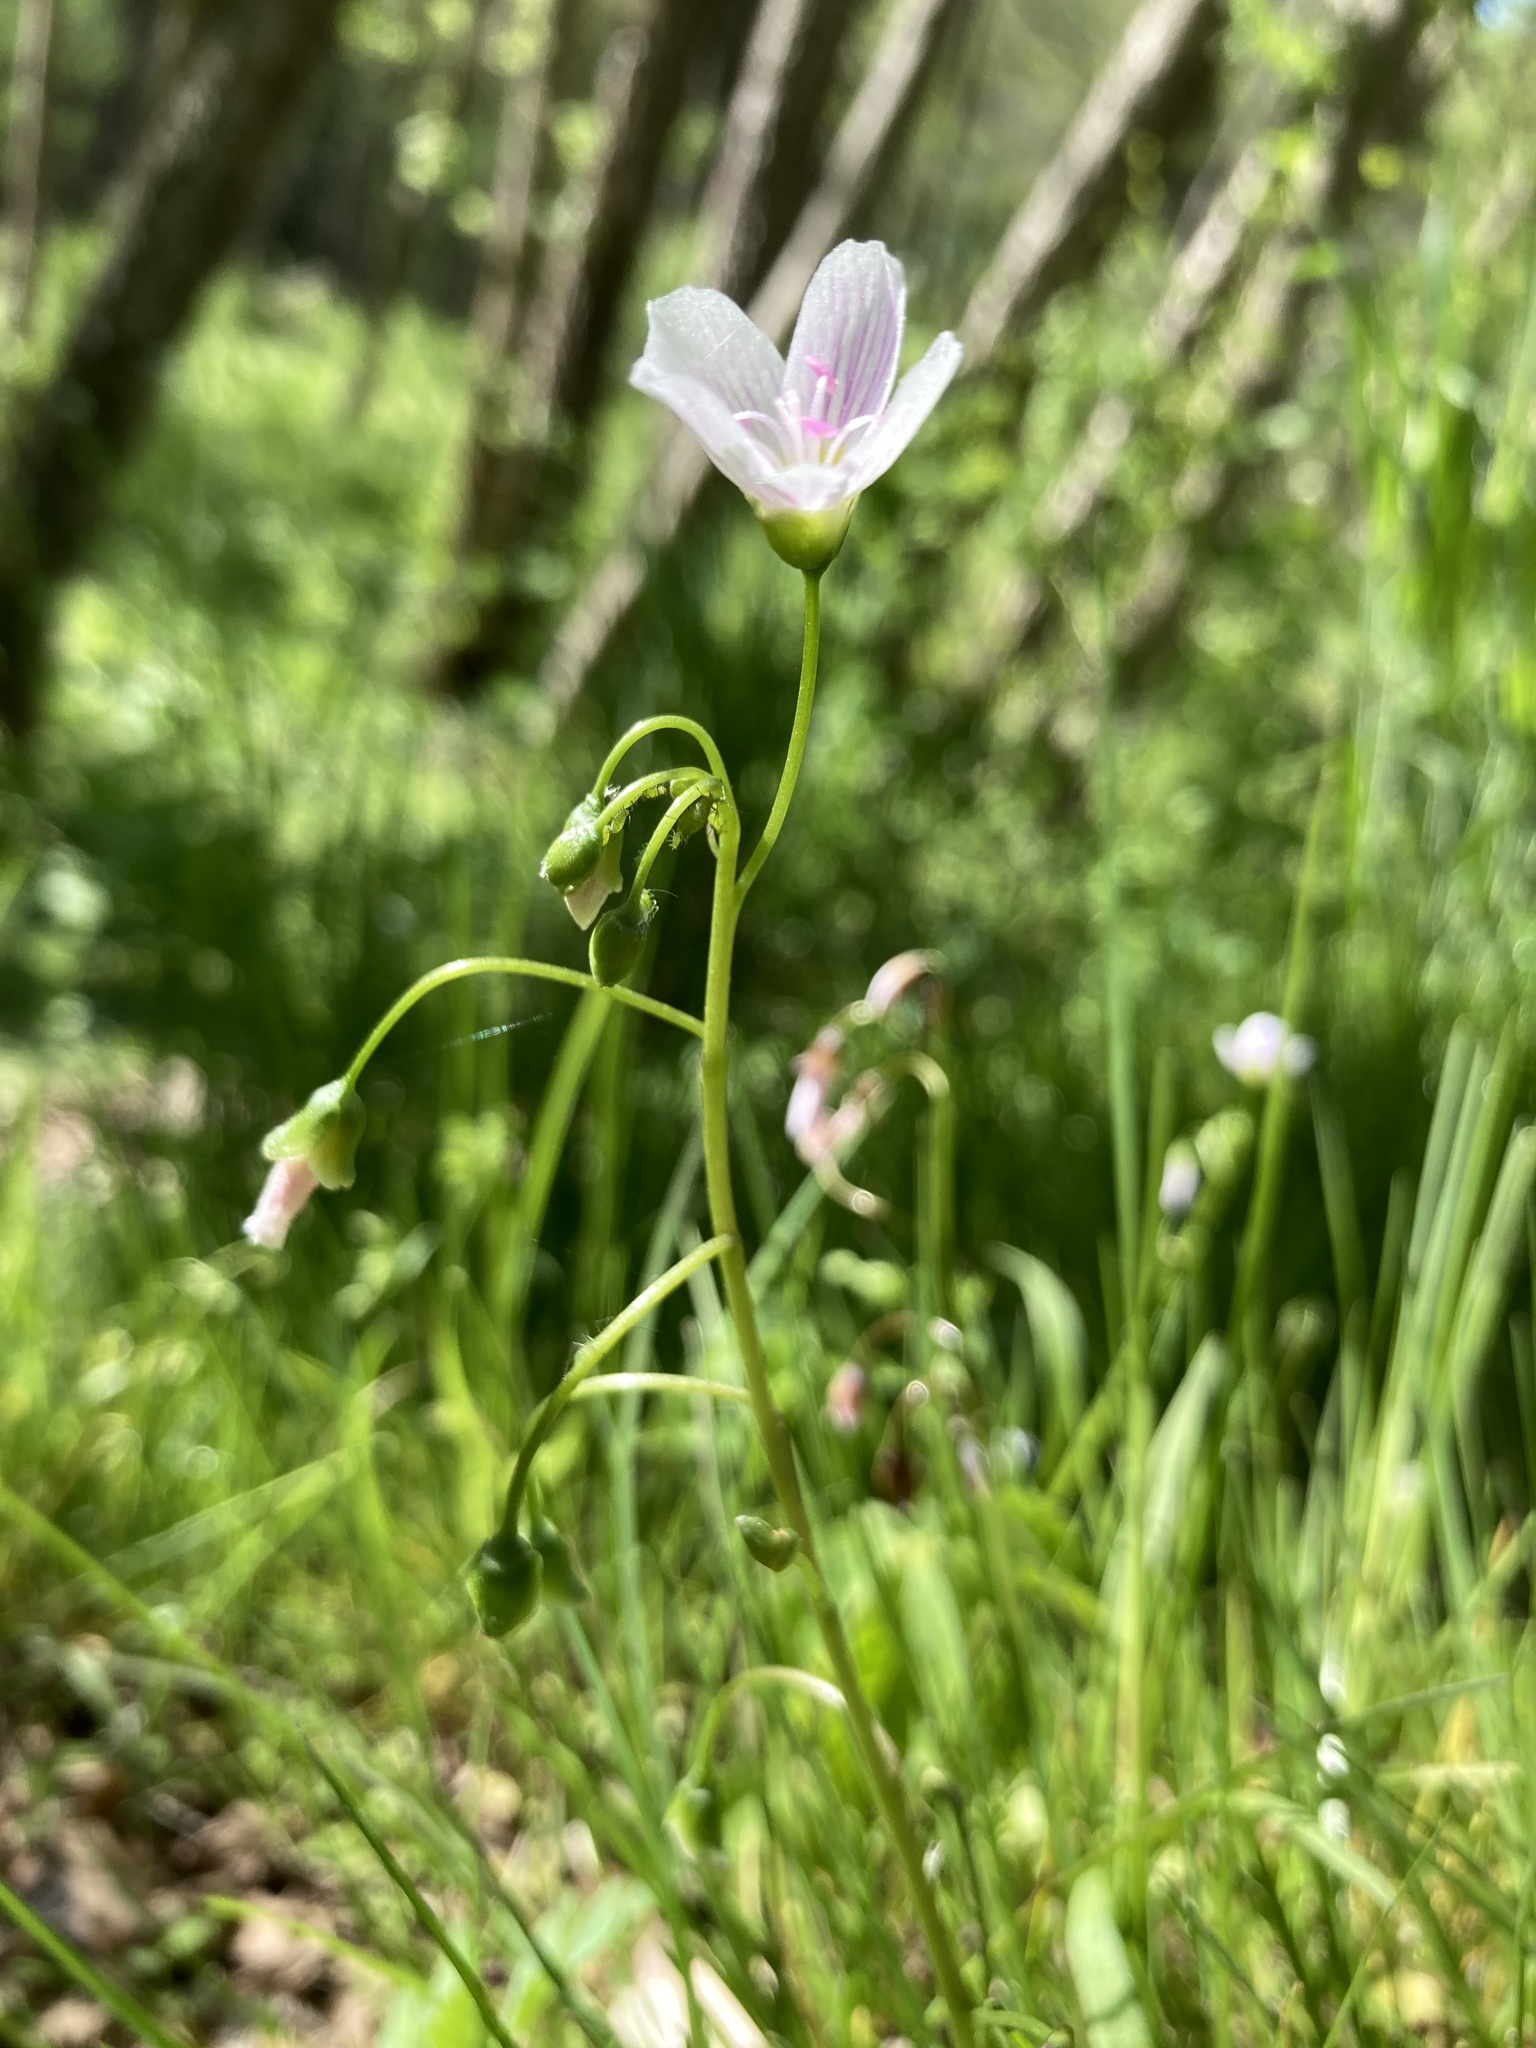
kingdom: Plantae
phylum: Tracheophyta
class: Magnoliopsida
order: Caryophyllales
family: Montiaceae
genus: Claytonia
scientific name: Claytonia virginica
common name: Virginia springbeauty
